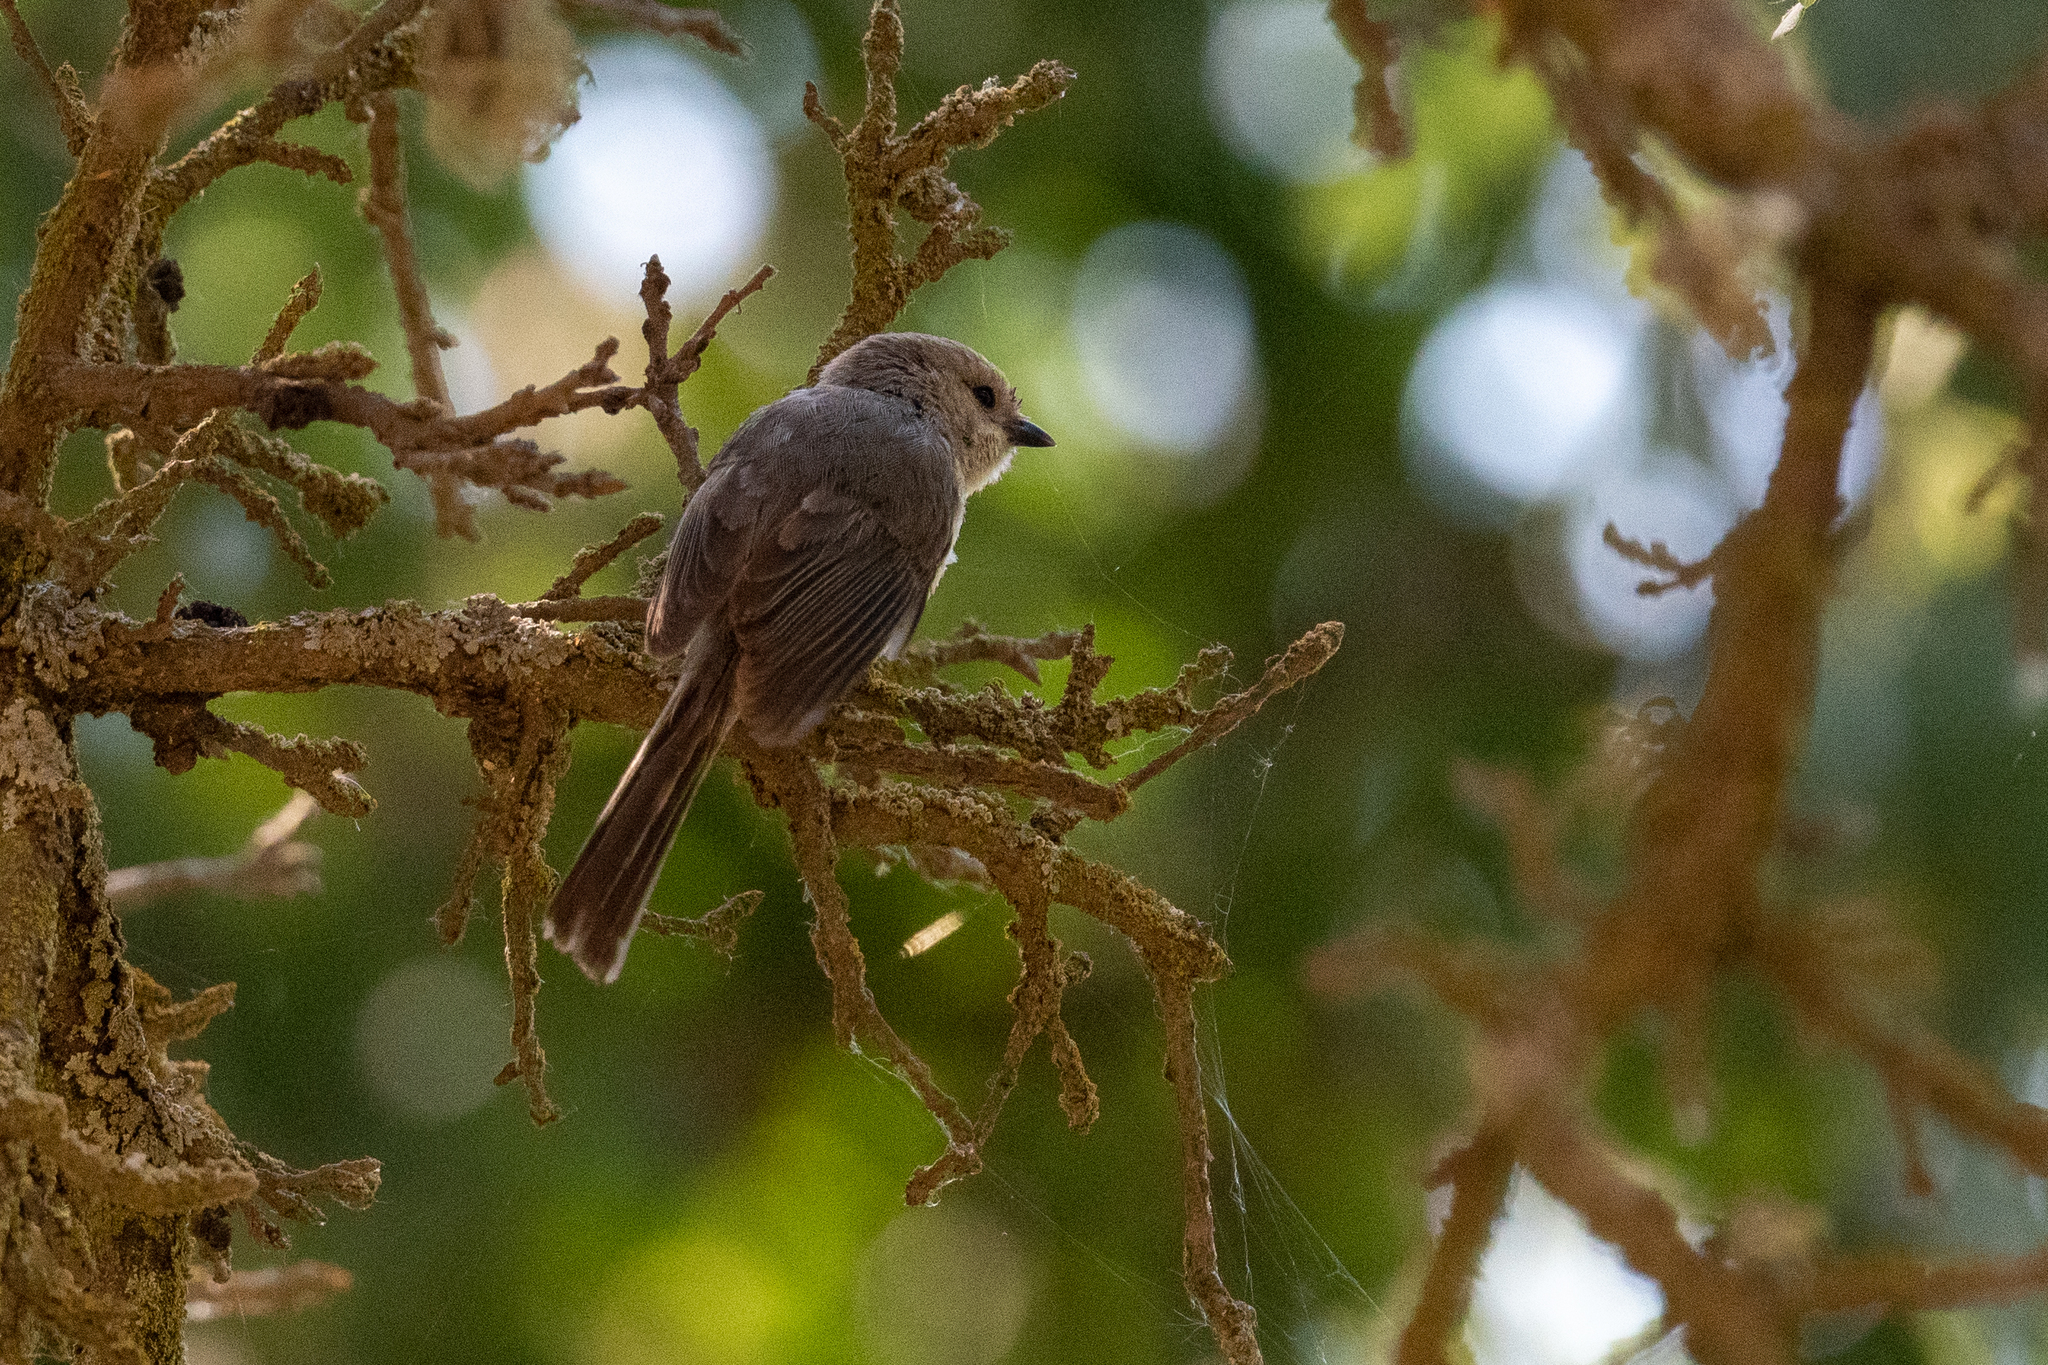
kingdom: Animalia
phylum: Chordata
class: Aves
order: Passeriformes
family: Aegithalidae
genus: Psaltriparus
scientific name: Psaltriparus minimus
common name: American bushtit
